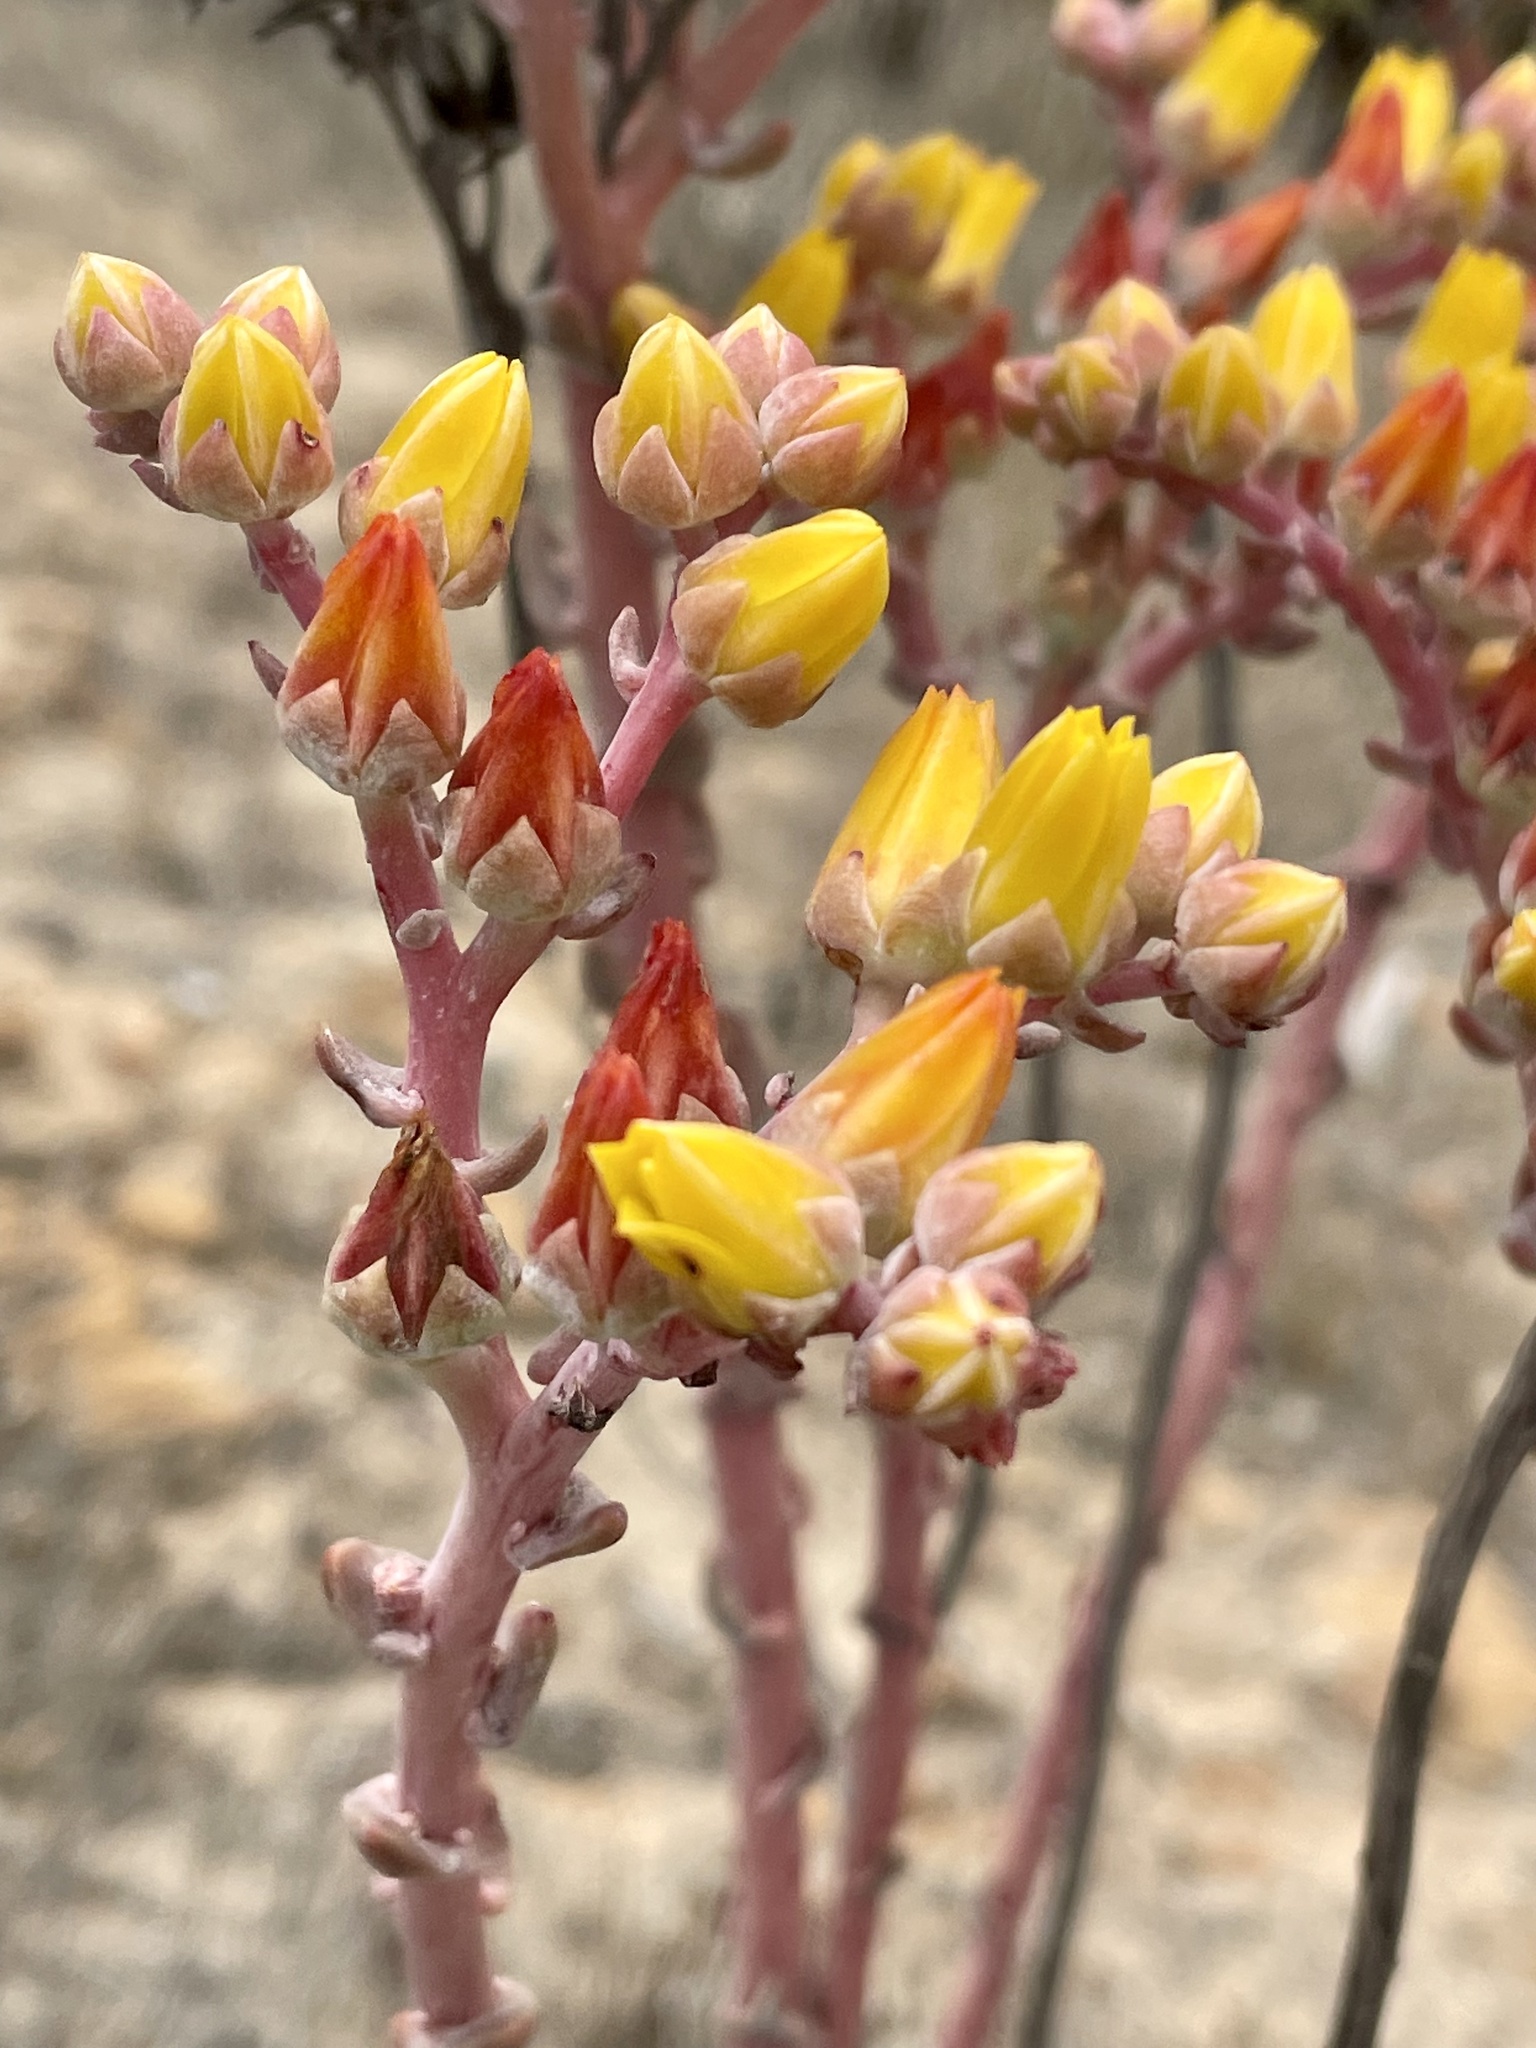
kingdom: Plantae
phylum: Tracheophyta
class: Magnoliopsida
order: Saxifragales
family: Crassulaceae
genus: Dudleya
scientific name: Dudleya caespitosa
